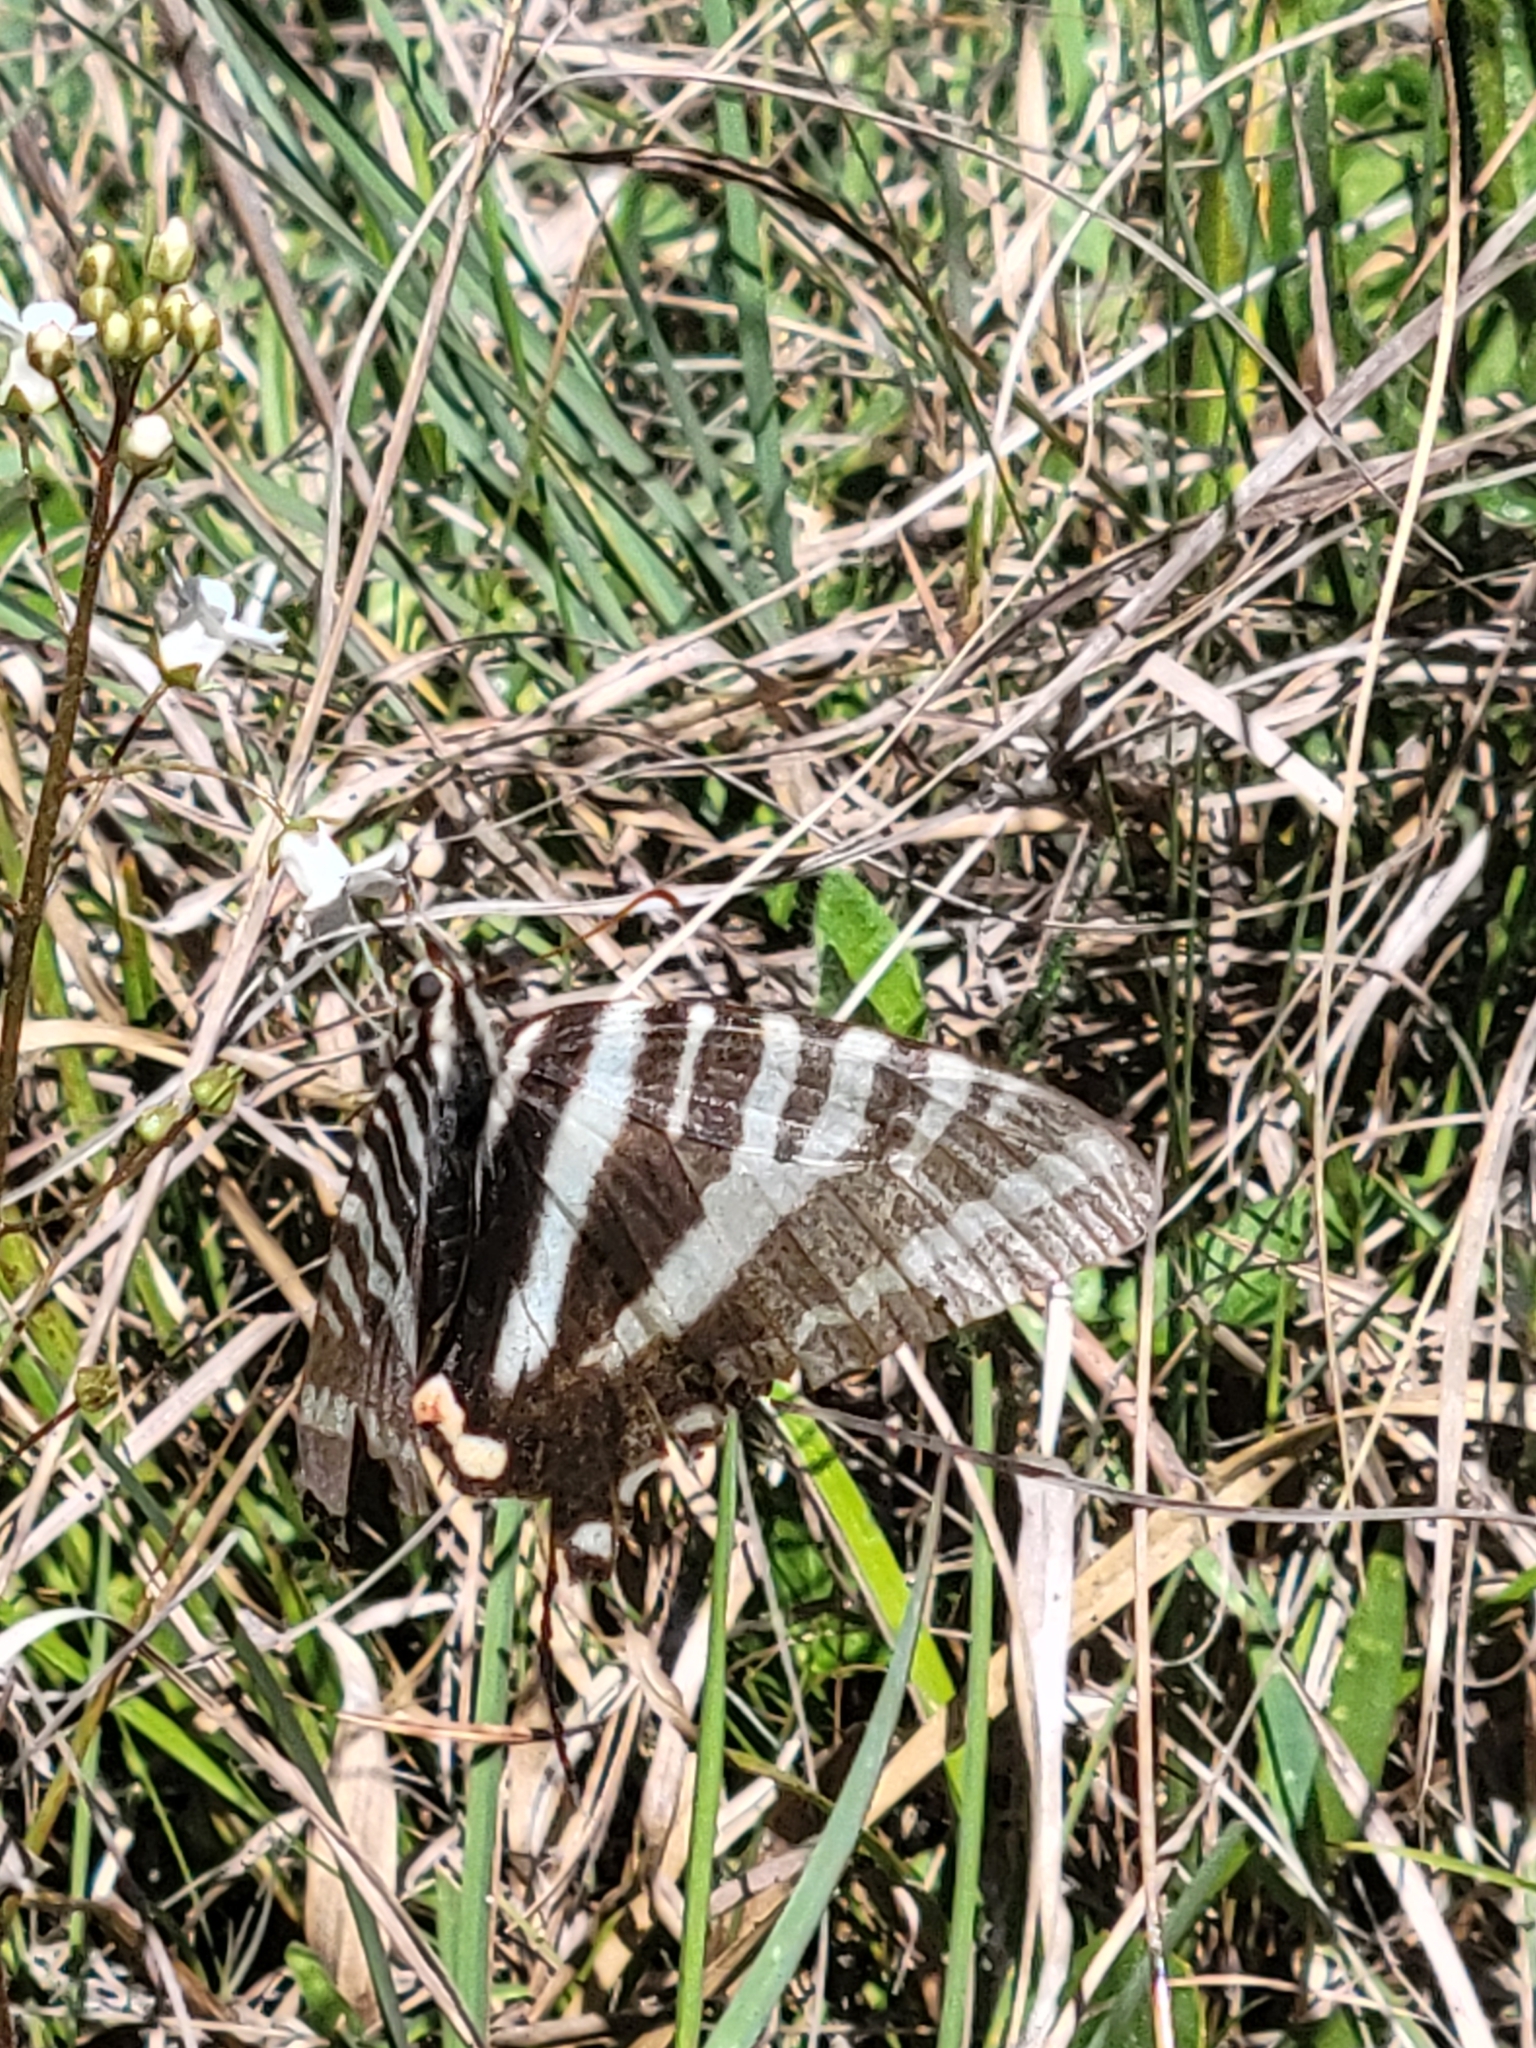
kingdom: Animalia
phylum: Arthropoda
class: Insecta
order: Lepidoptera
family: Papilionidae
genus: Protographium
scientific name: Protographium marcellus
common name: Zebra swallowtail
